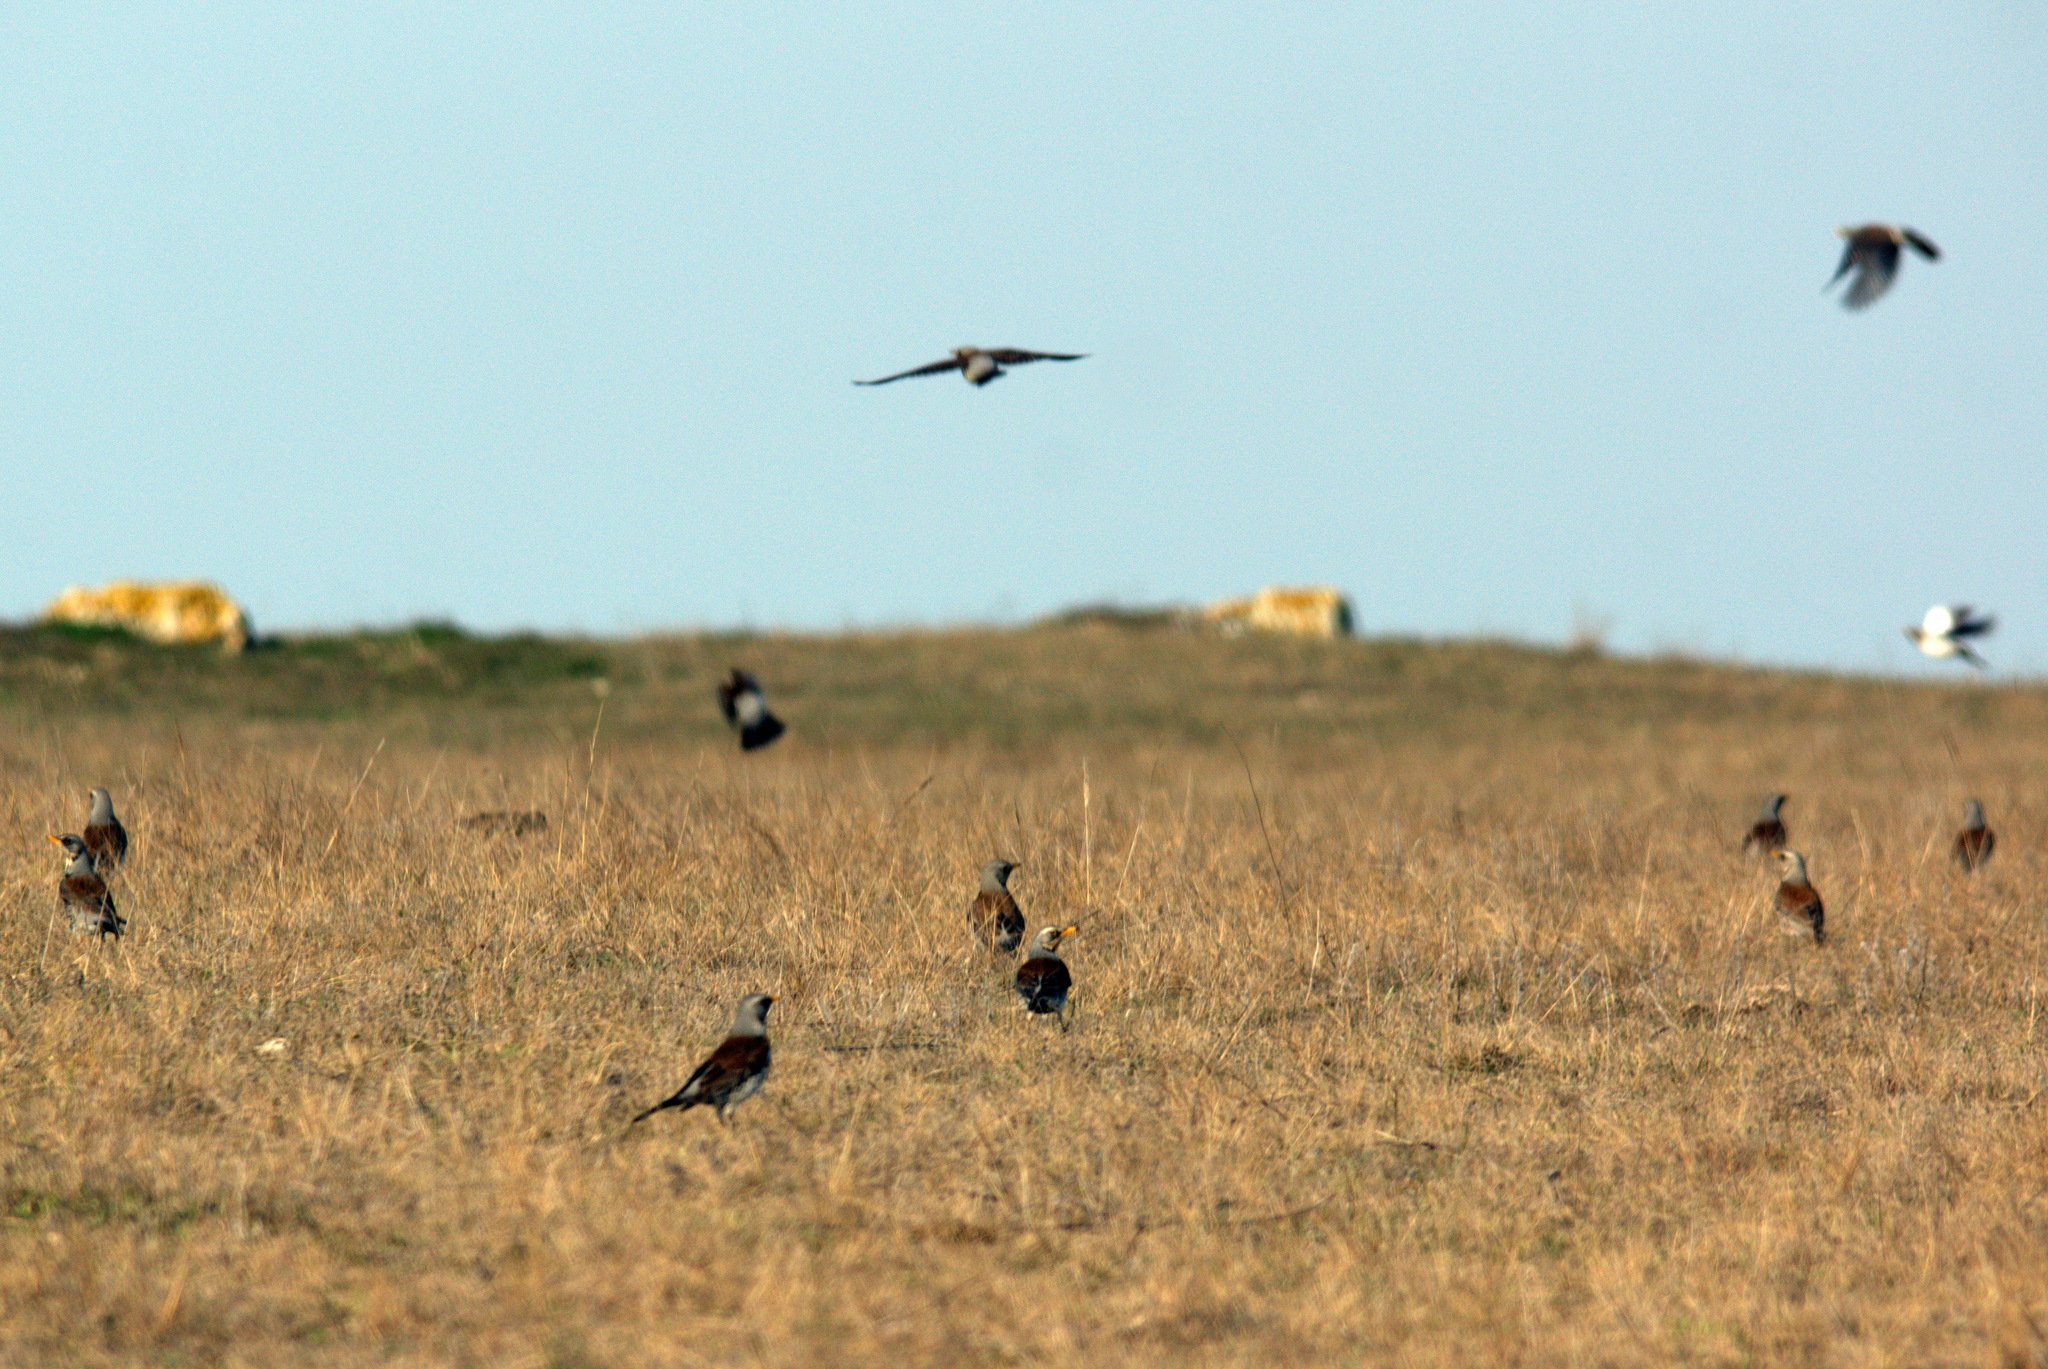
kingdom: Animalia
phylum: Chordata
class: Aves
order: Passeriformes
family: Turdidae
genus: Turdus
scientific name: Turdus pilaris
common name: Fieldfare
